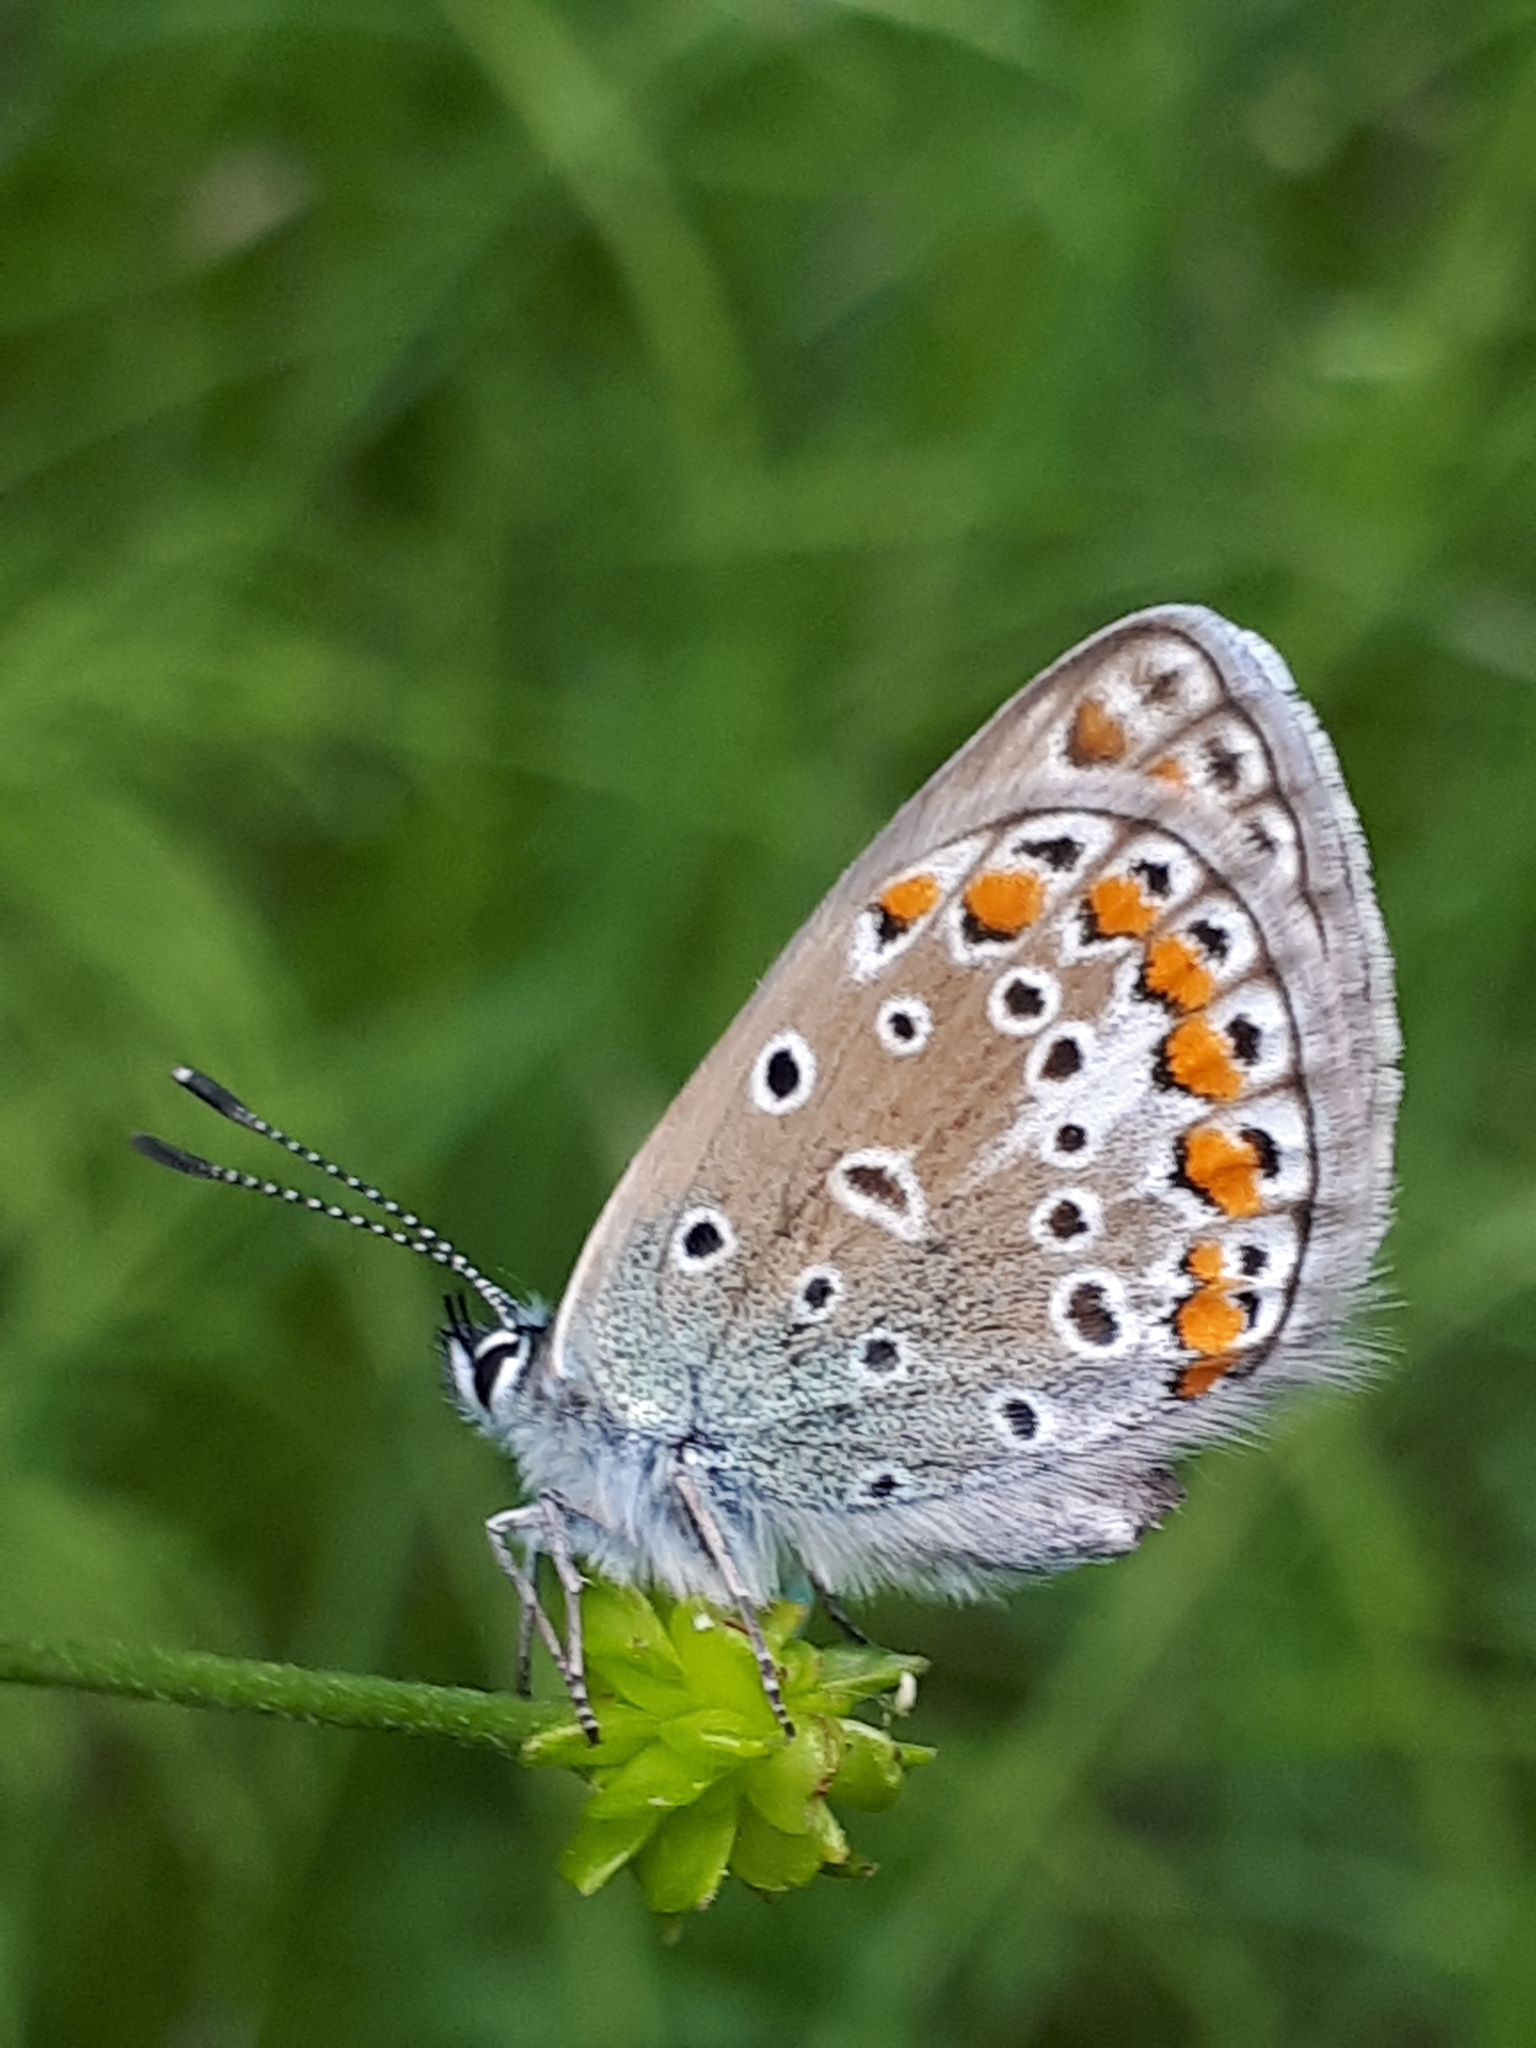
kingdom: Animalia
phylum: Arthropoda
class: Insecta
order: Lepidoptera
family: Lycaenidae
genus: Polyommatus
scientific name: Polyommatus icarus
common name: Common blue
